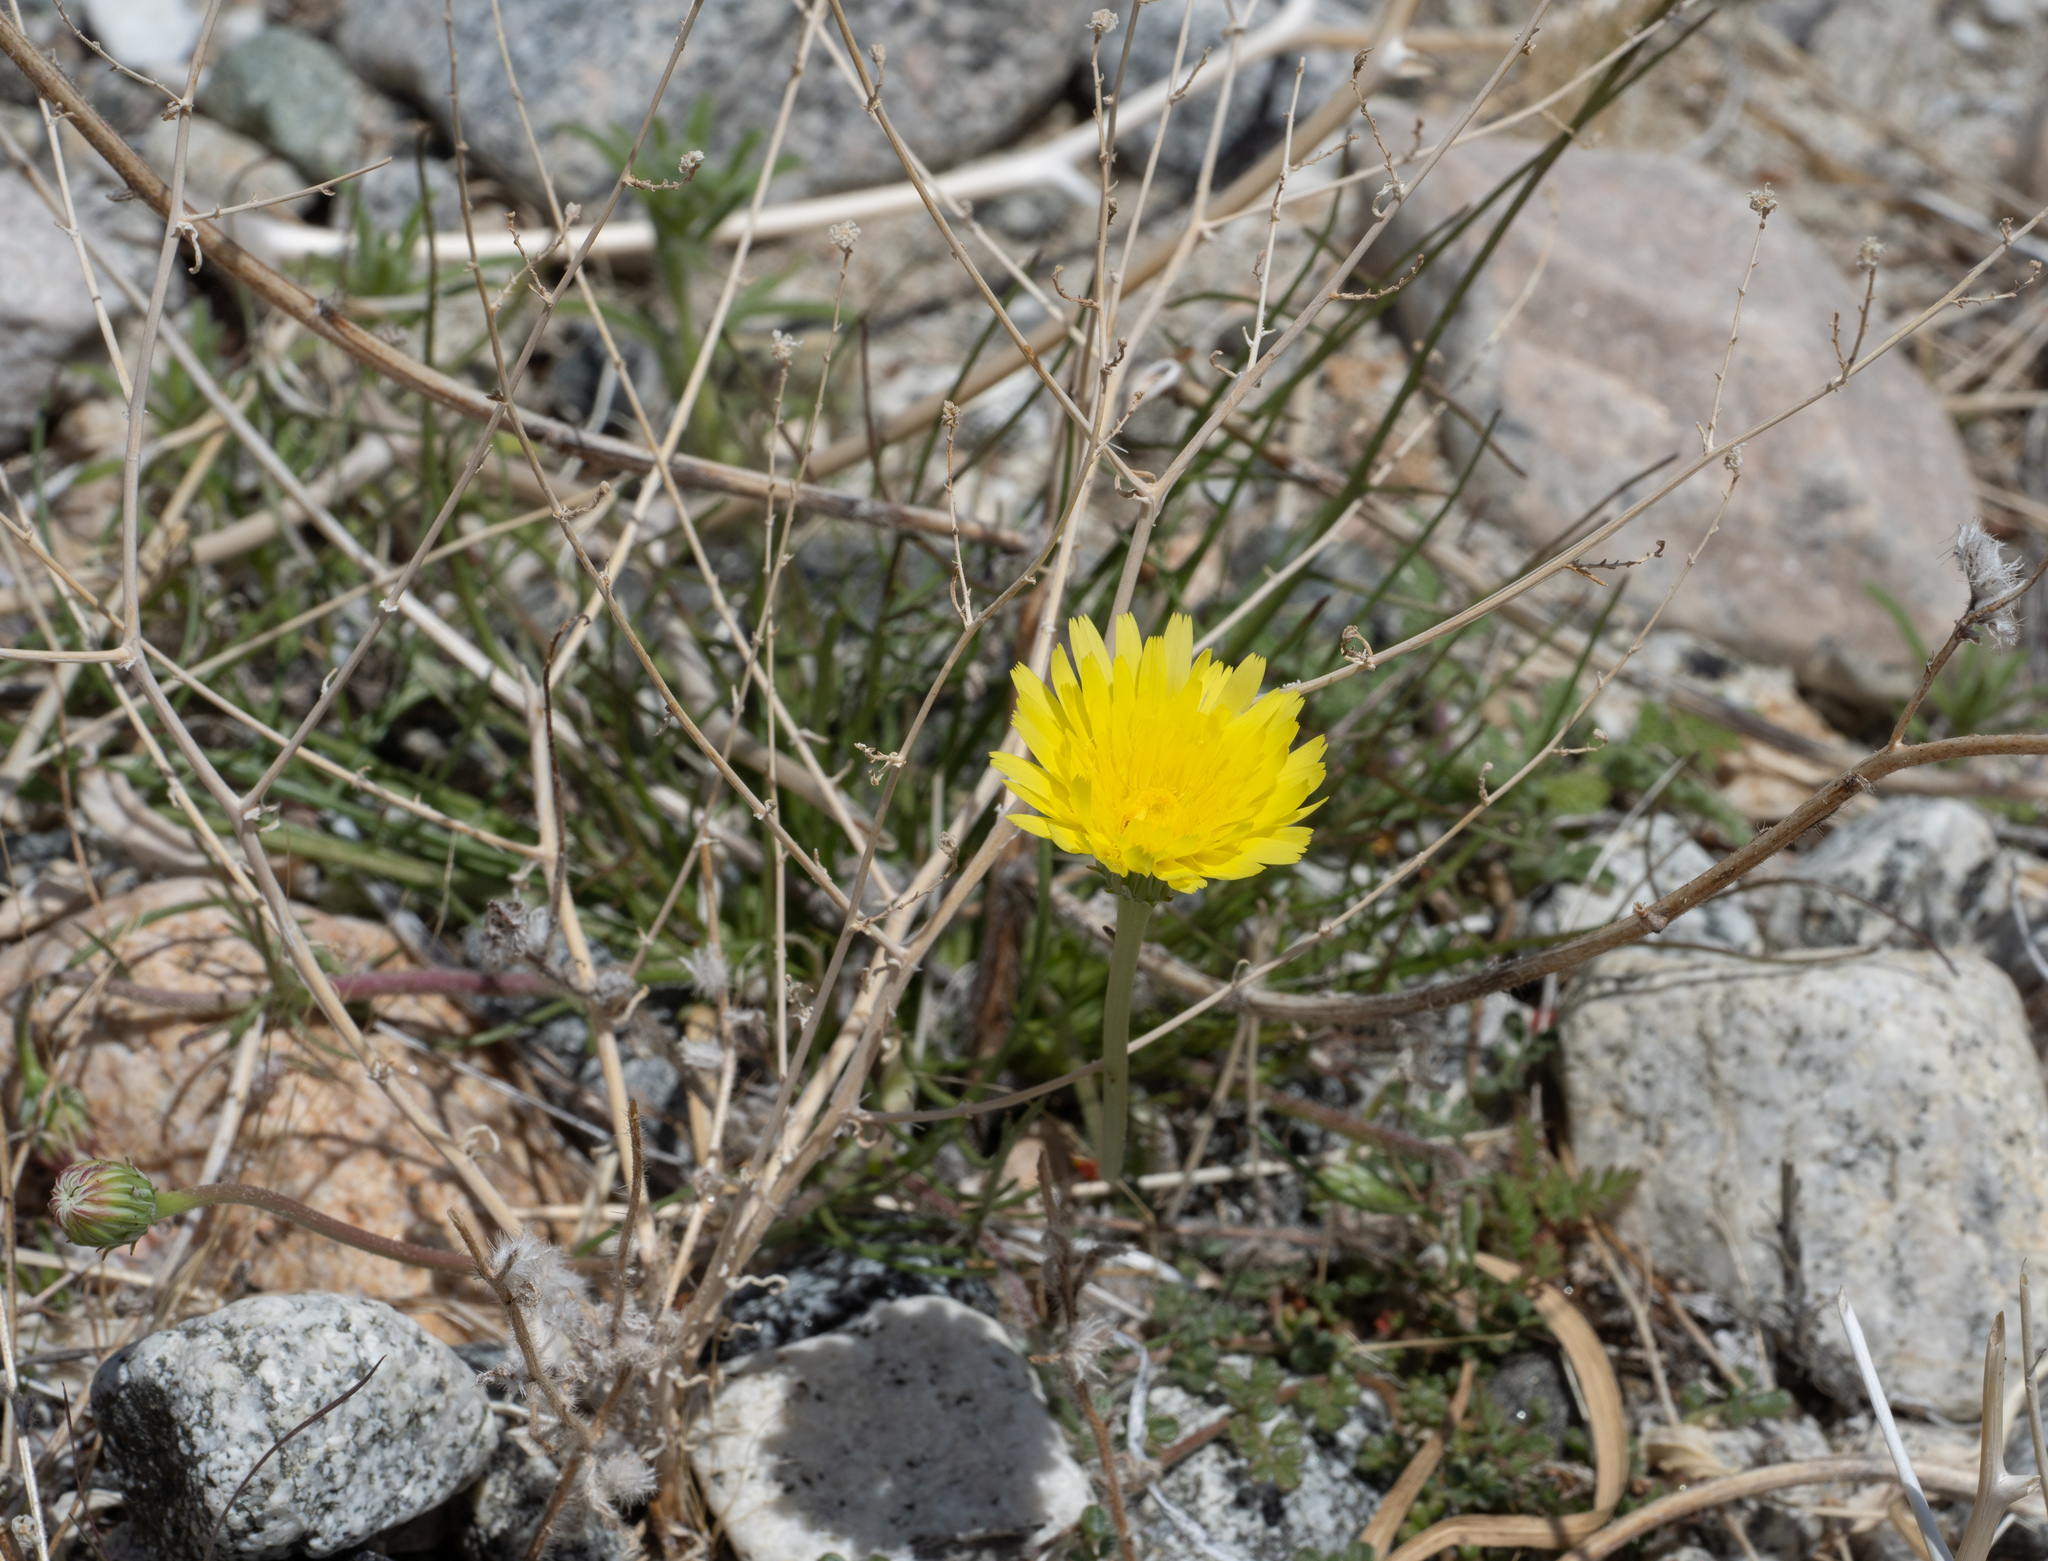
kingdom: Plantae
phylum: Tracheophyta
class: Magnoliopsida
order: Asterales
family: Asteraceae
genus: Malacothrix
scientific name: Malacothrix glabrata
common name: Smooth desert-dandelion
